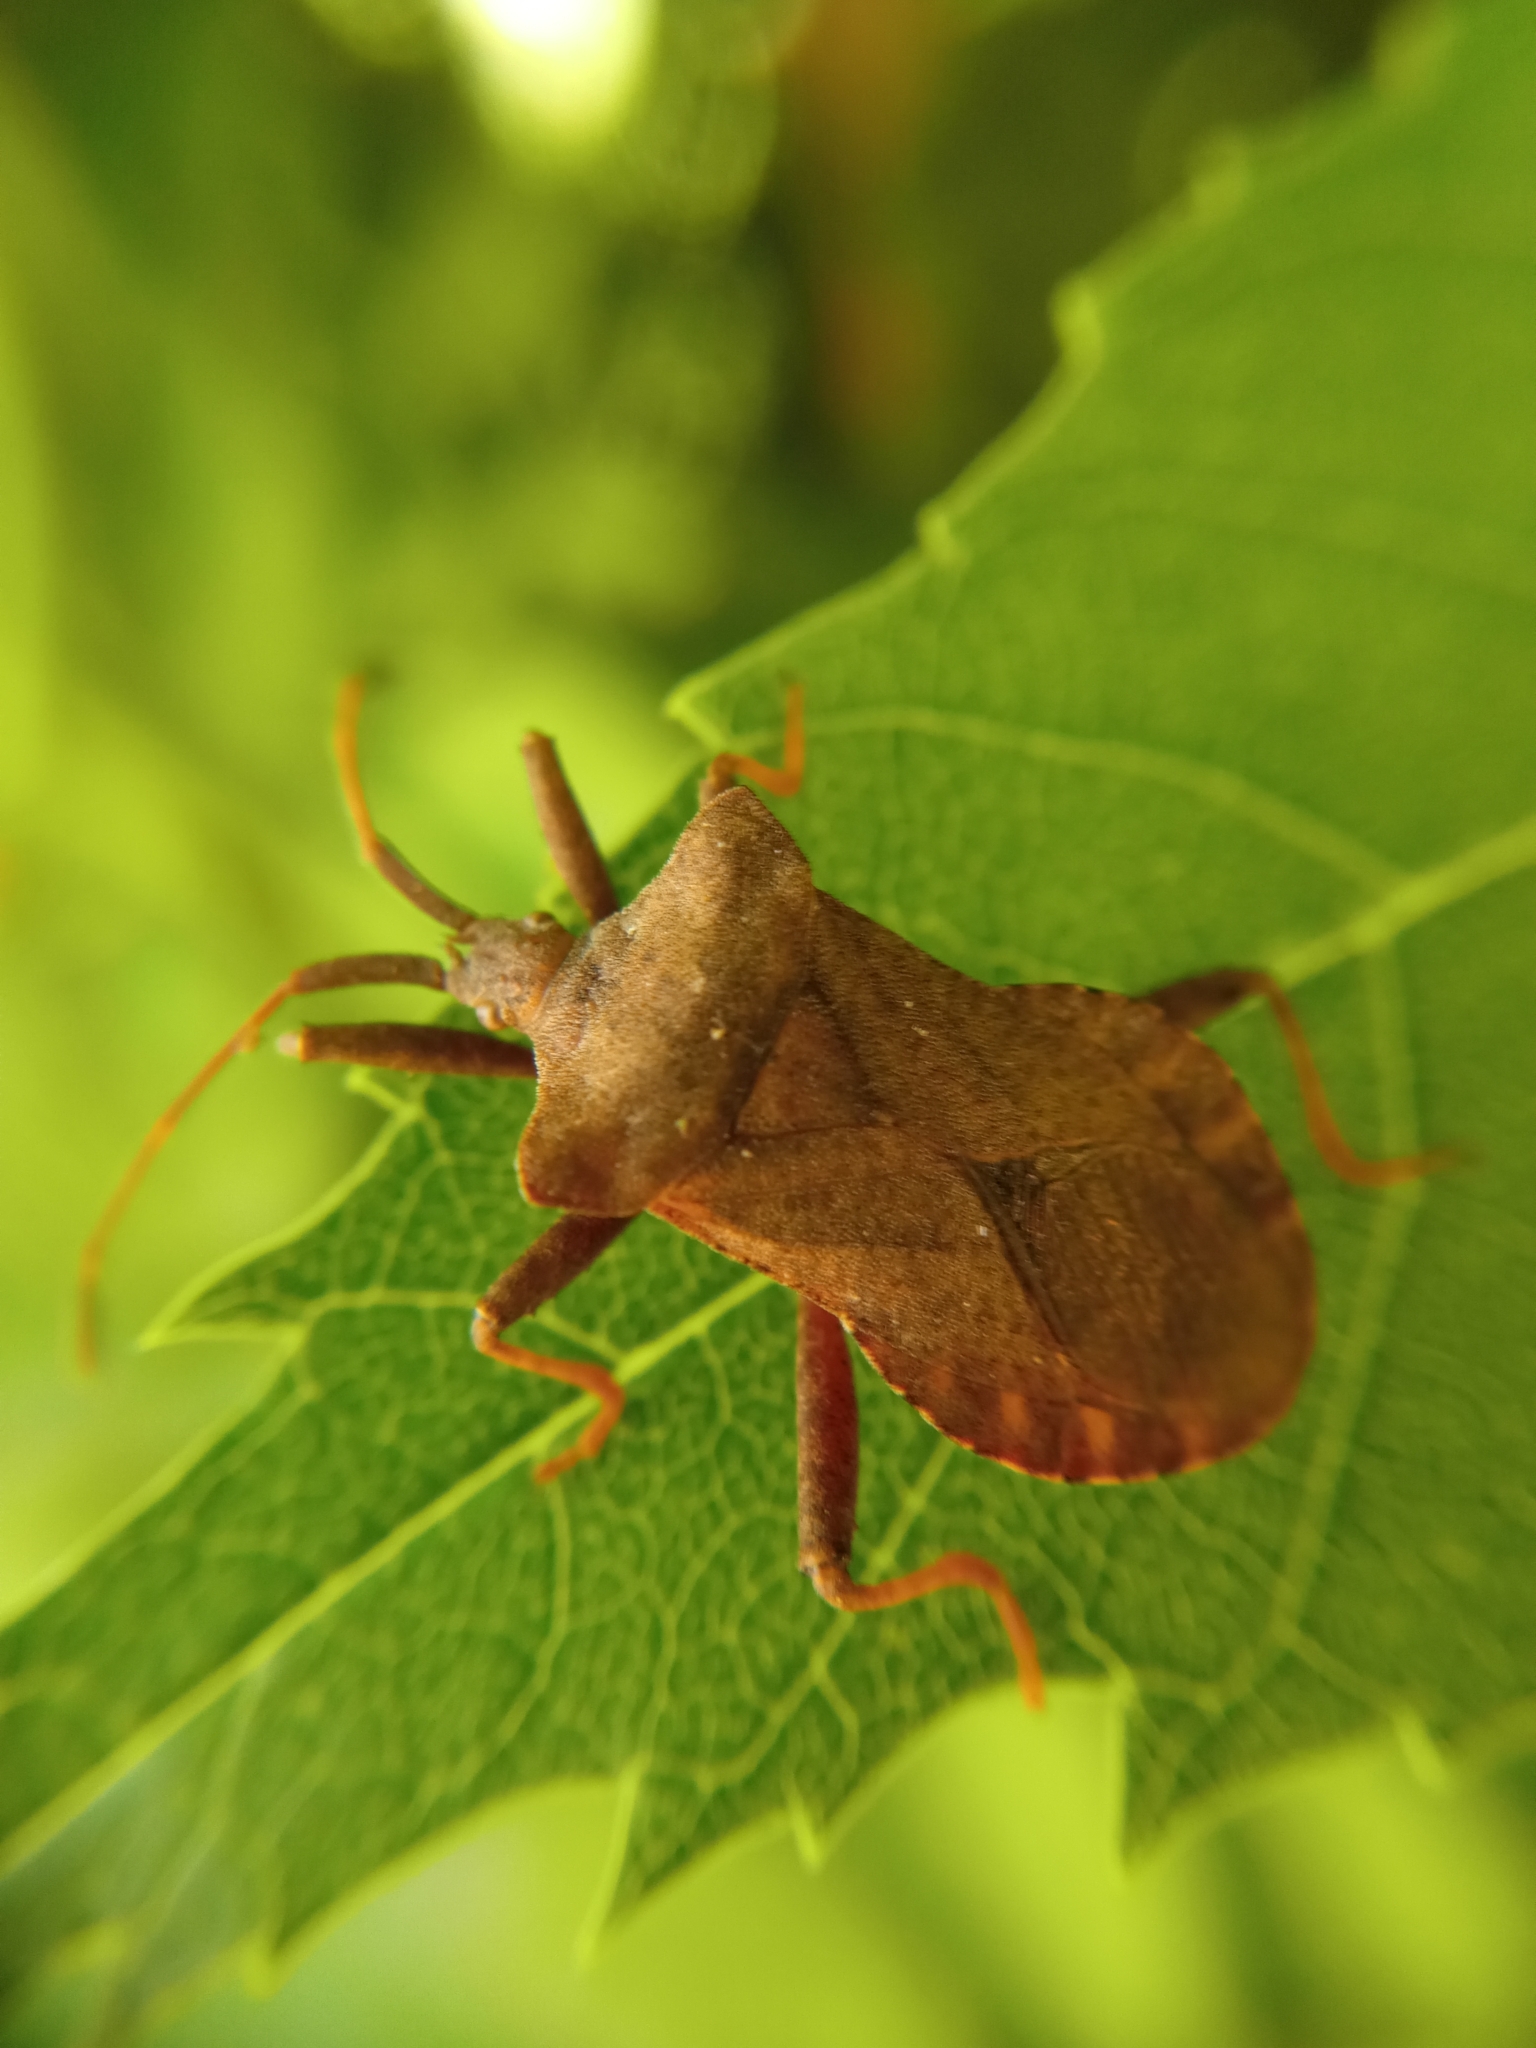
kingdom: Animalia
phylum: Arthropoda
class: Insecta
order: Hemiptera
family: Coreidae
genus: Coreus
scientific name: Coreus marginatus
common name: Dock bug
